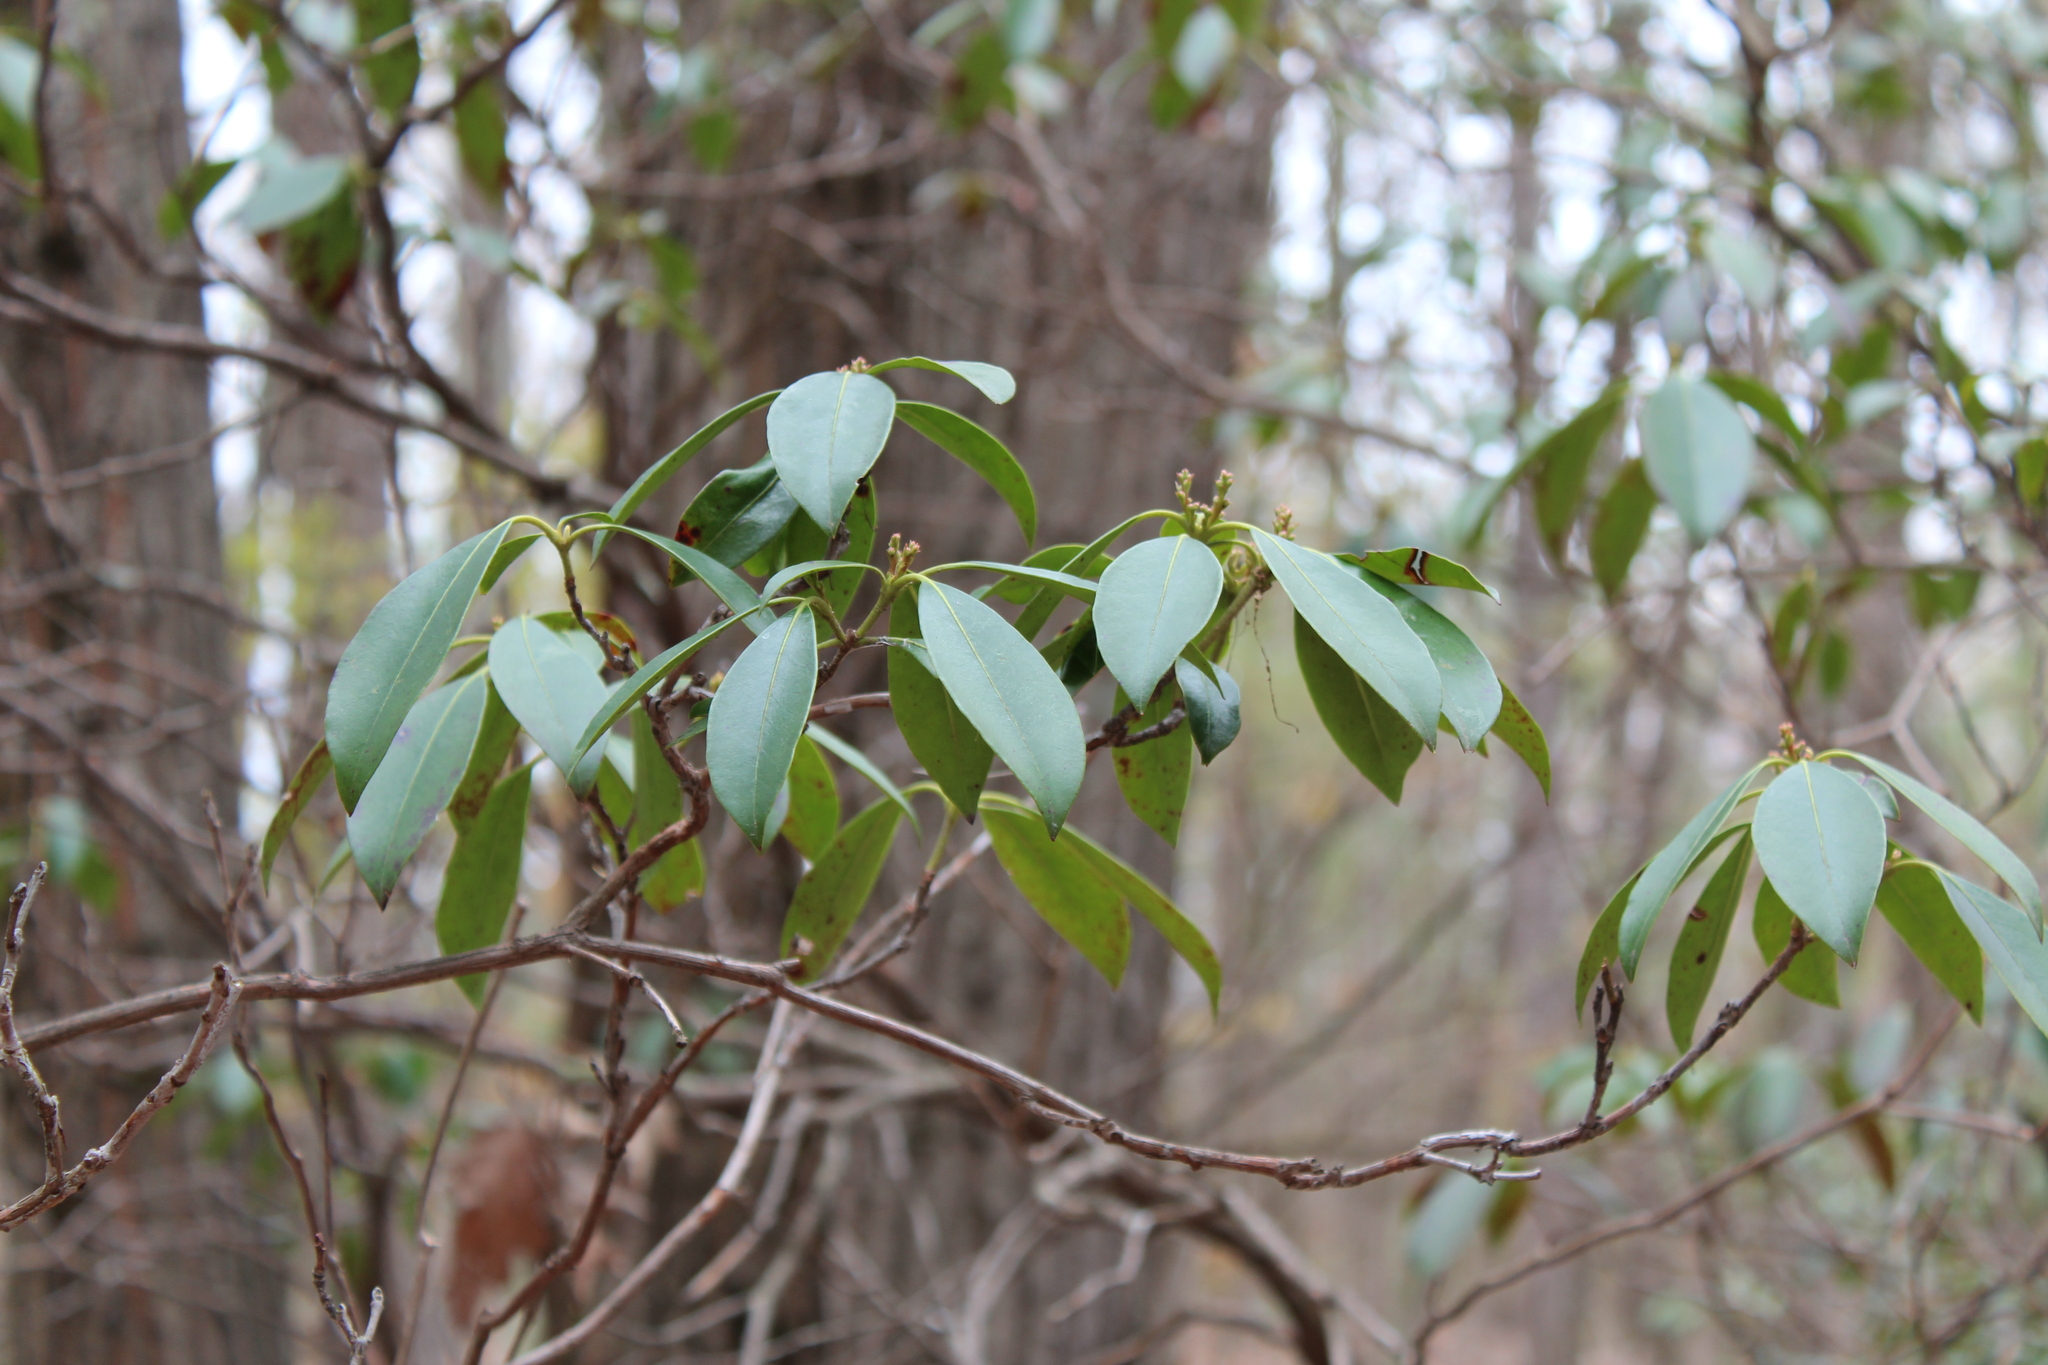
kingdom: Plantae
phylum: Tracheophyta
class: Magnoliopsida
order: Ericales
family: Ericaceae
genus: Kalmia
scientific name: Kalmia latifolia
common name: Mountain-laurel
